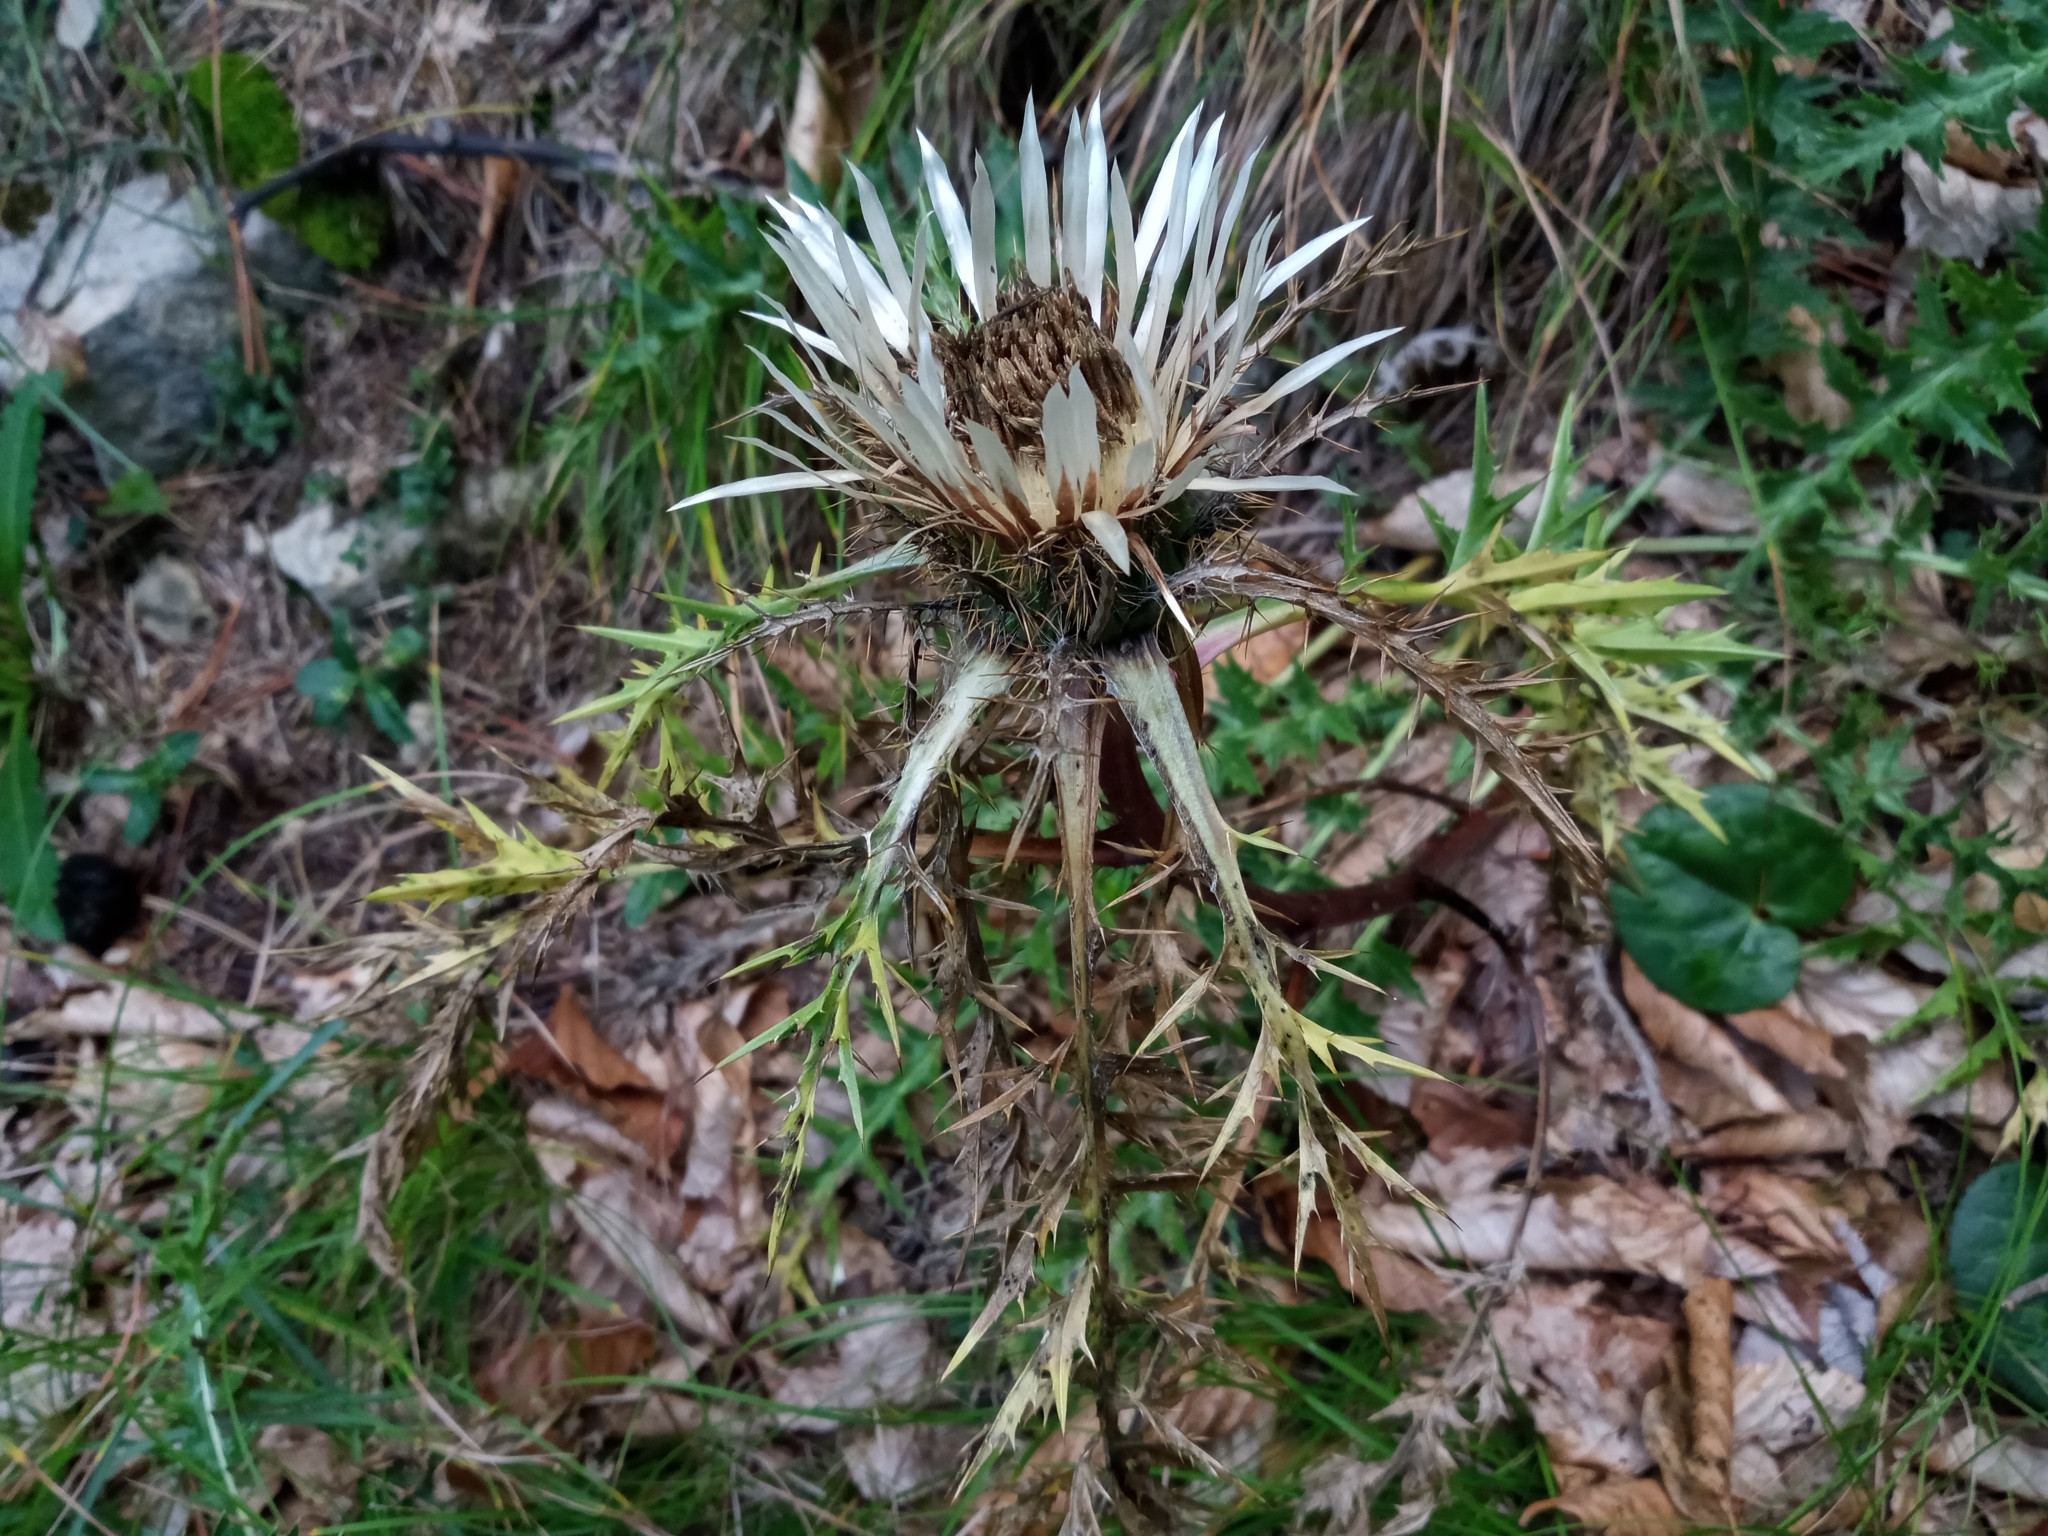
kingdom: Plantae
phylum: Tracheophyta
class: Magnoliopsida
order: Asterales
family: Asteraceae
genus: Carlina
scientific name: Carlina acaulis
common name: Stemless carline thistle
